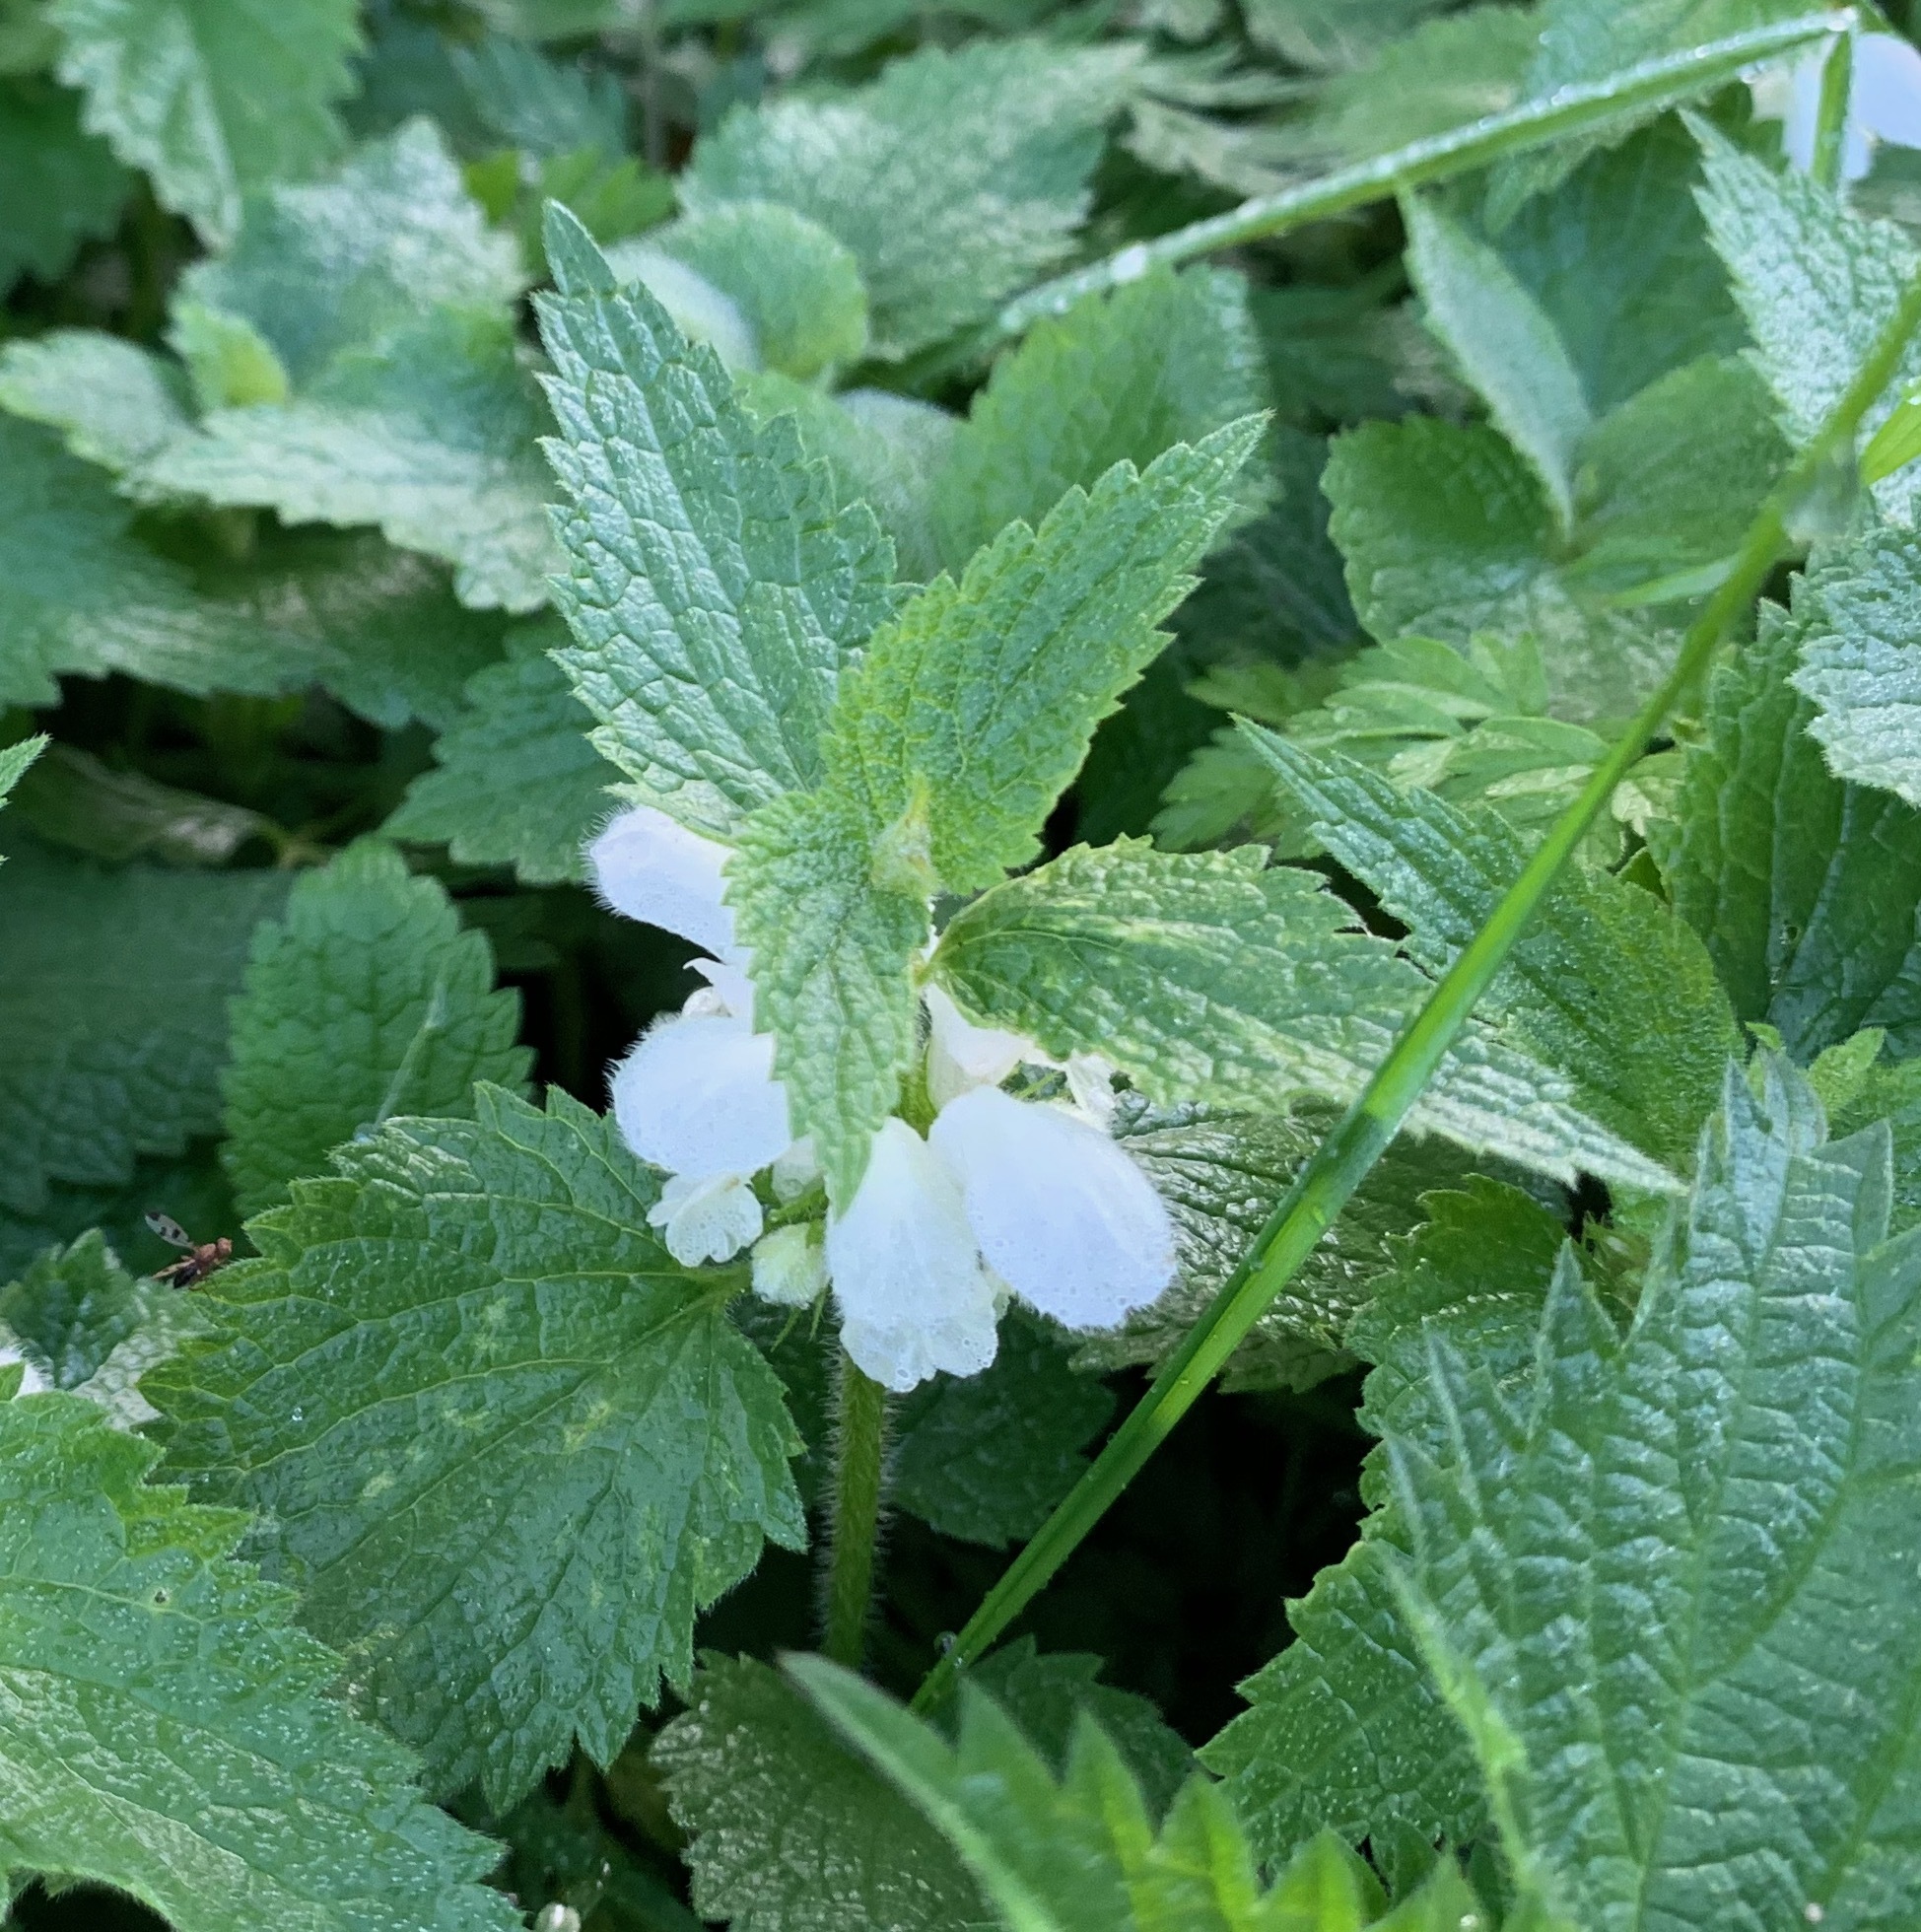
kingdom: Plantae
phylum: Tracheophyta
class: Magnoliopsida
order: Lamiales
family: Lamiaceae
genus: Lamium
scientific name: Lamium album
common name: White dead-nettle
